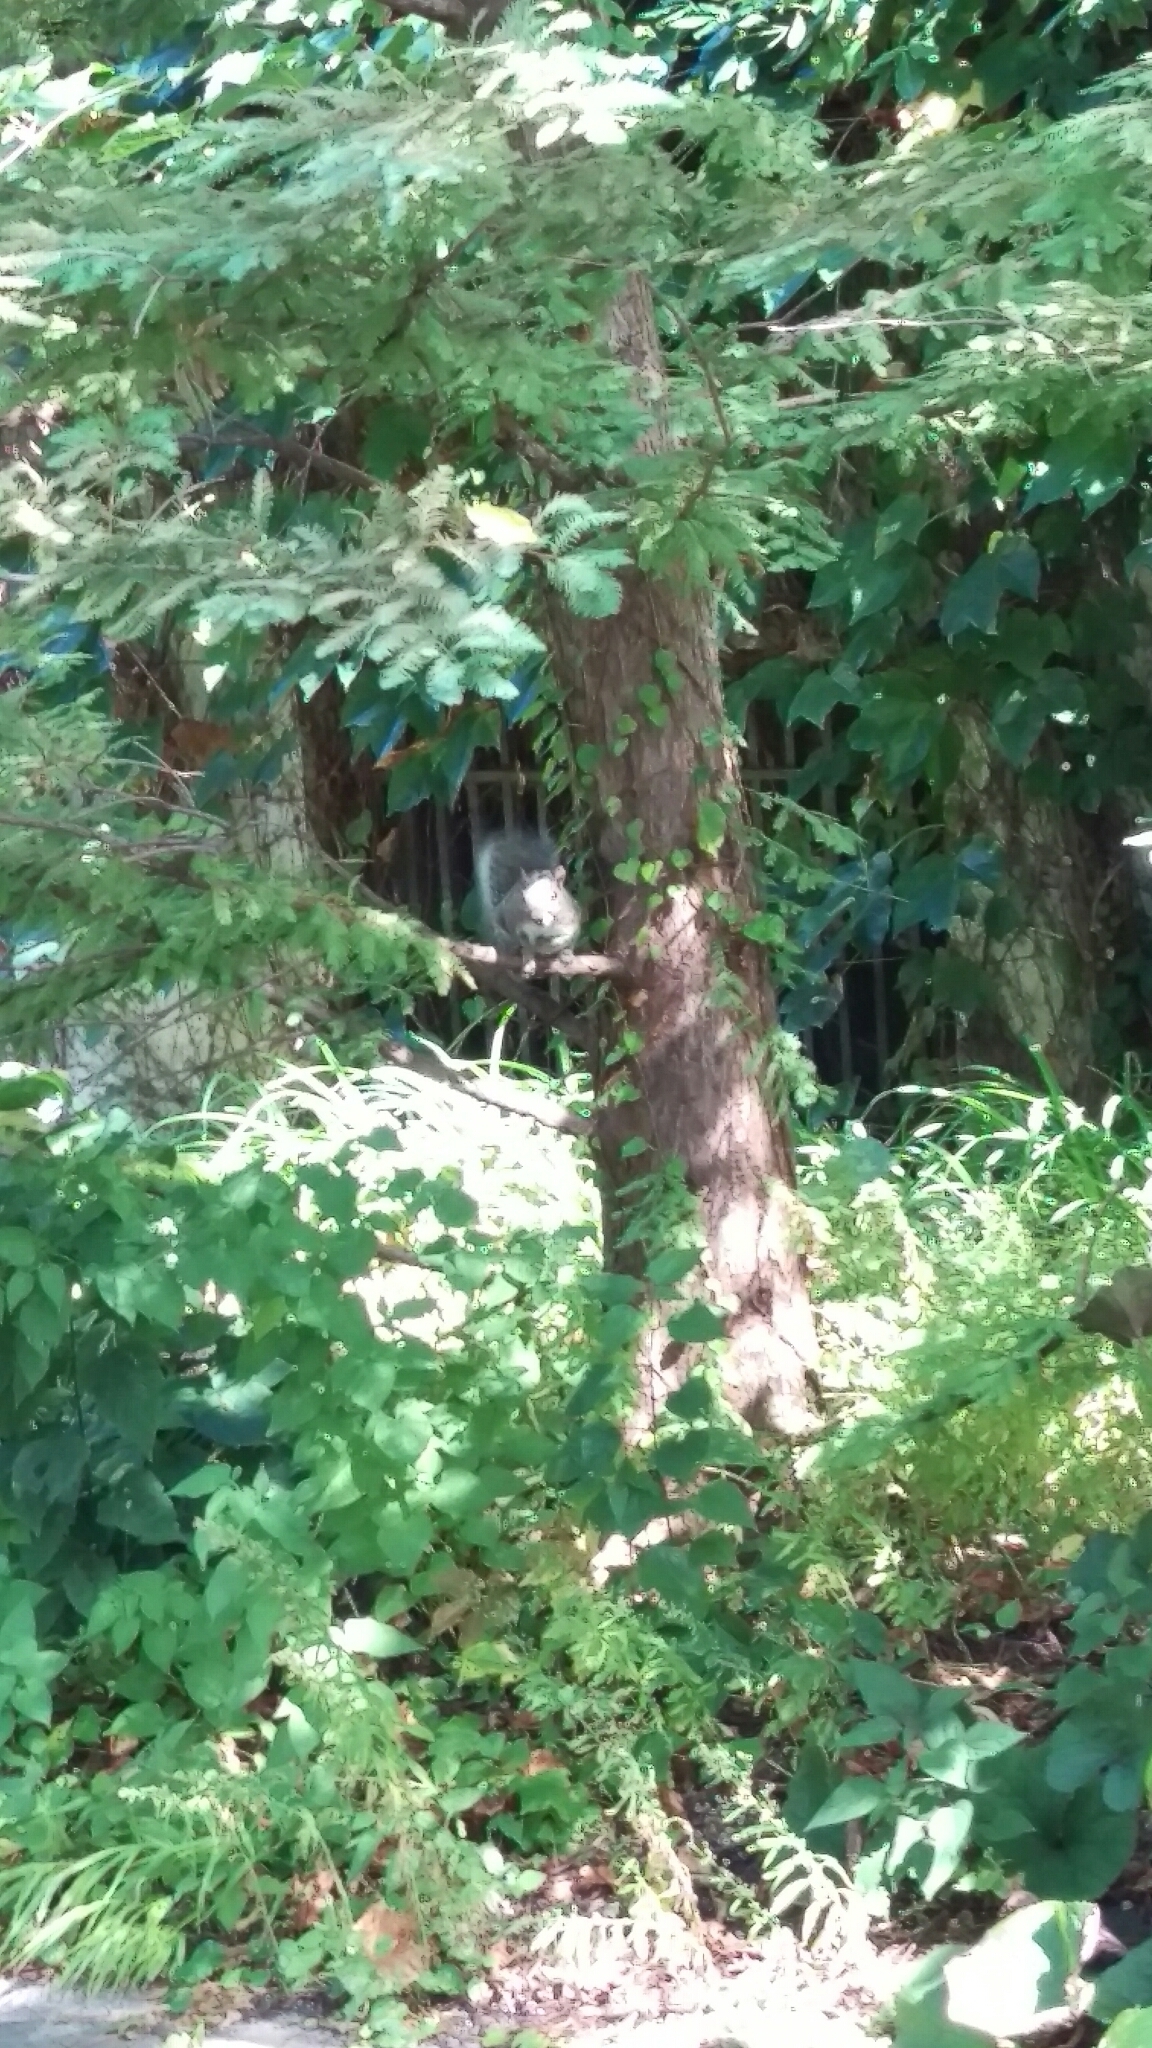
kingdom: Animalia
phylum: Chordata
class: Mammalia
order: Rodentia
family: Sciuridae
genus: Sciurus
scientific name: Sciurus carolinensis
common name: Eastern gray squirrel
